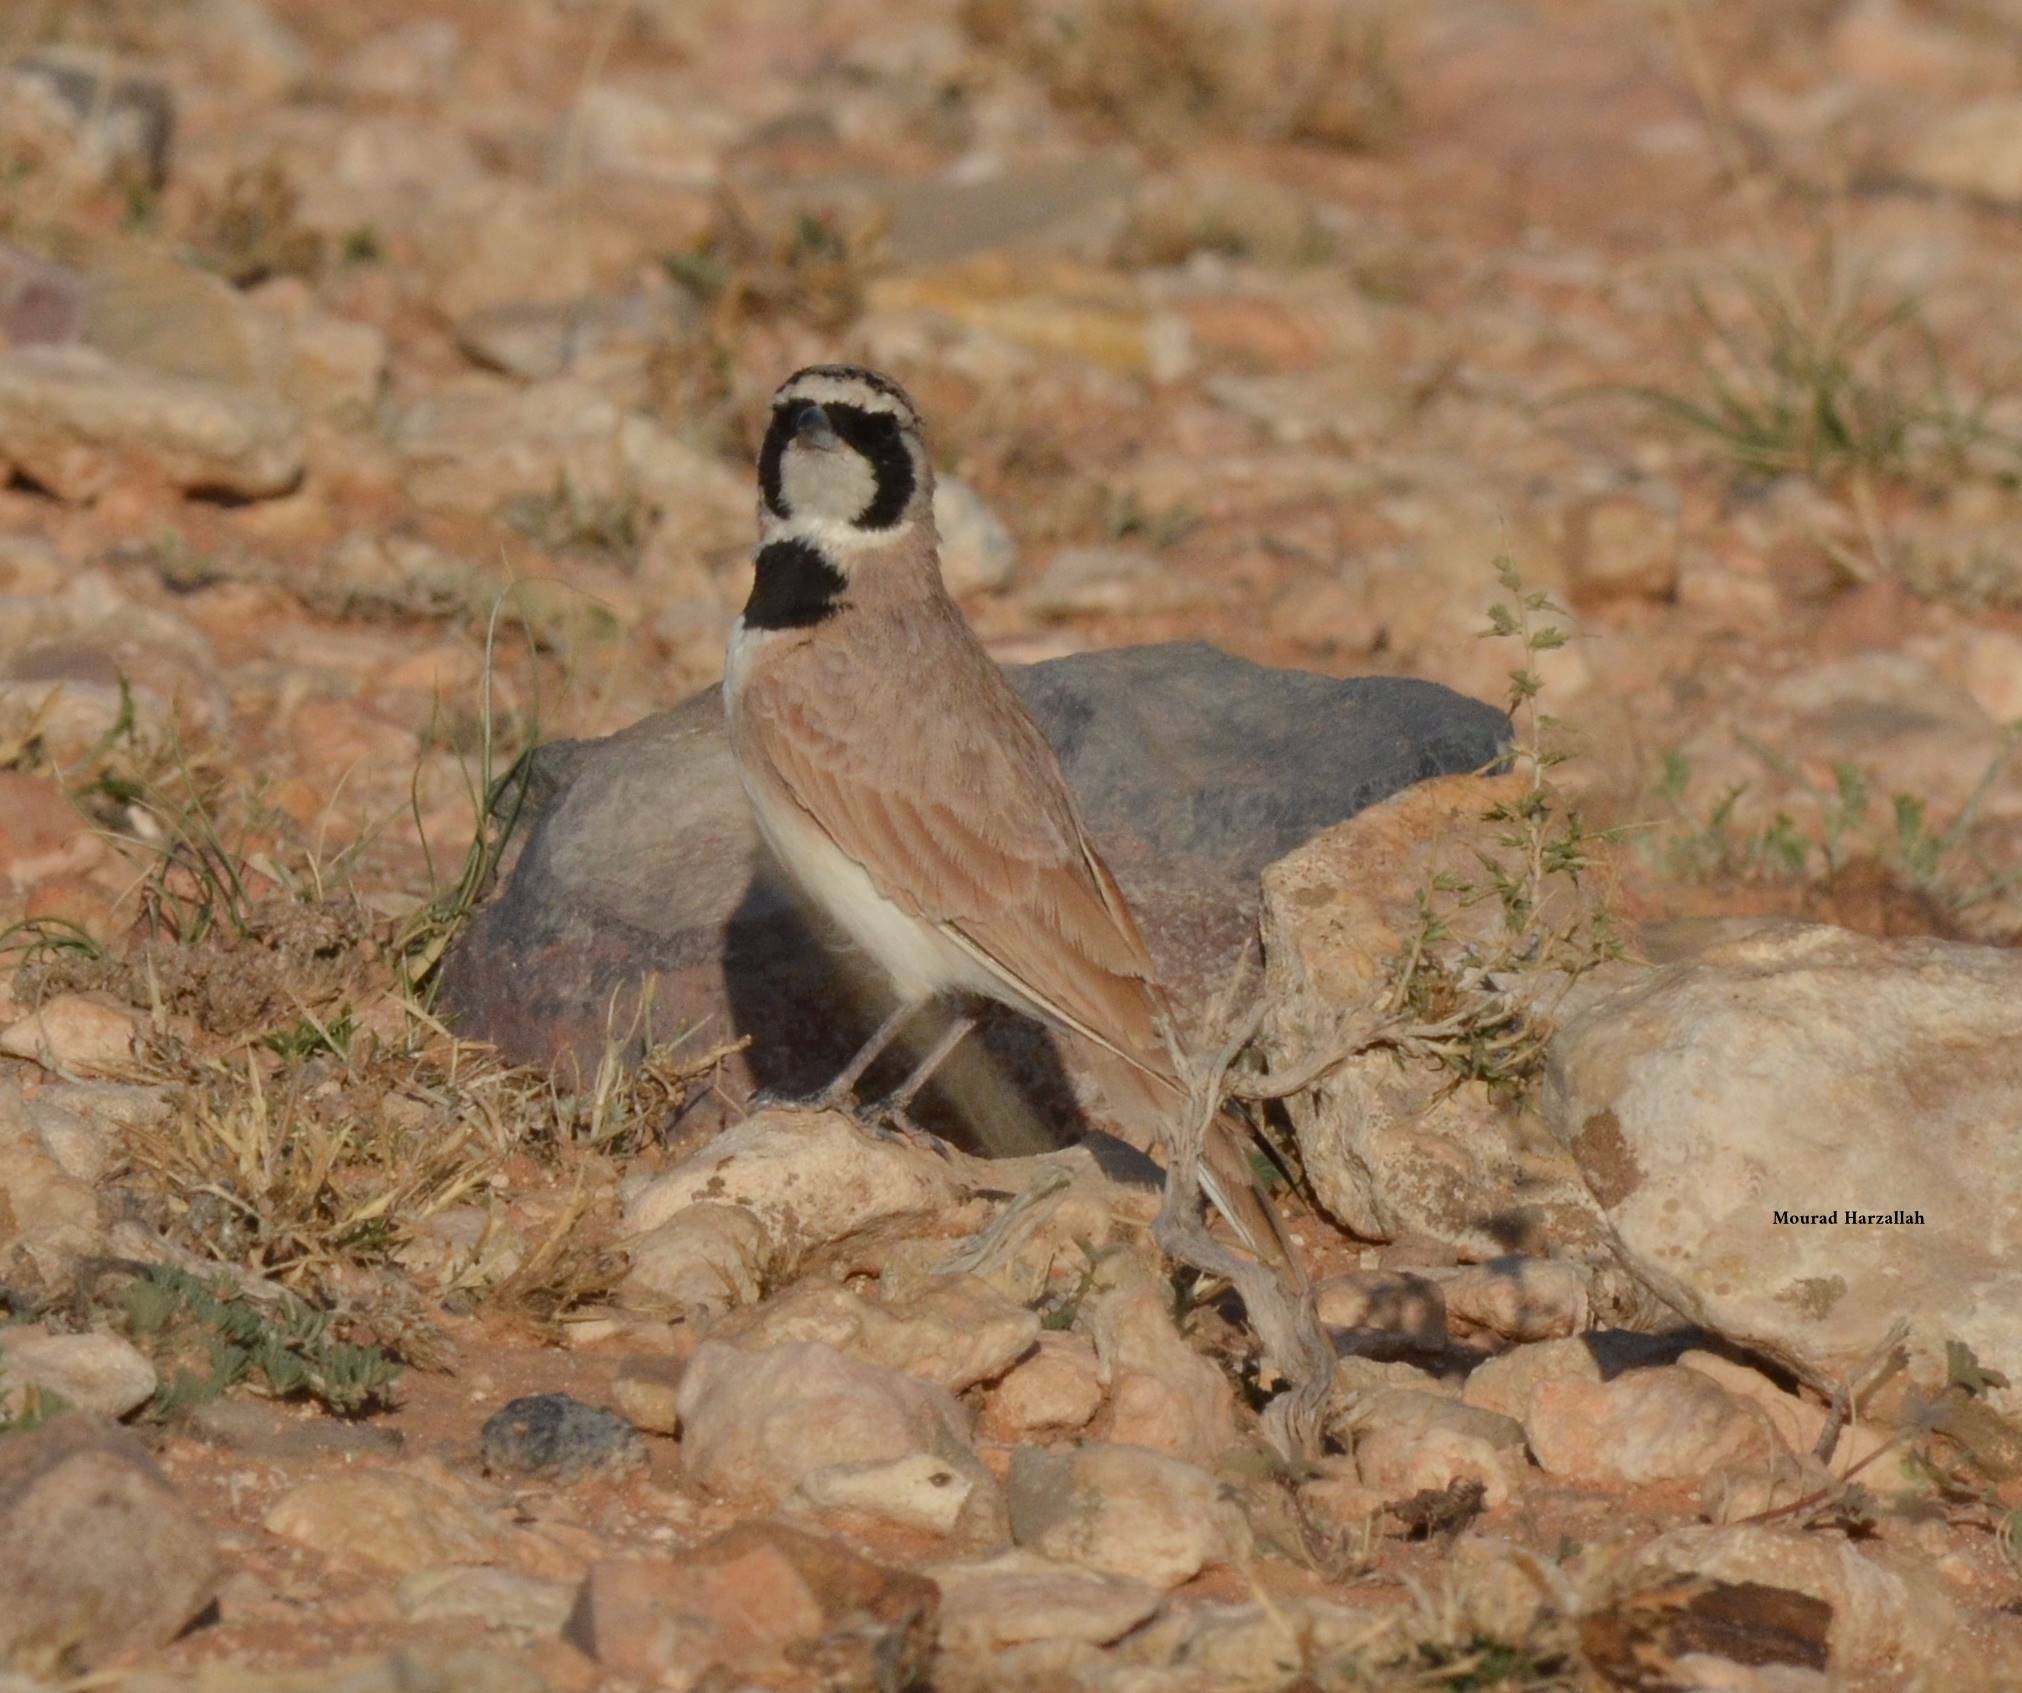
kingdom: Animalia
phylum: Chordata
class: Aves
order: Passeriformes
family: Alaudidae
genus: Eremophila
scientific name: Eremophila bilopha
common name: Temminck's lark
